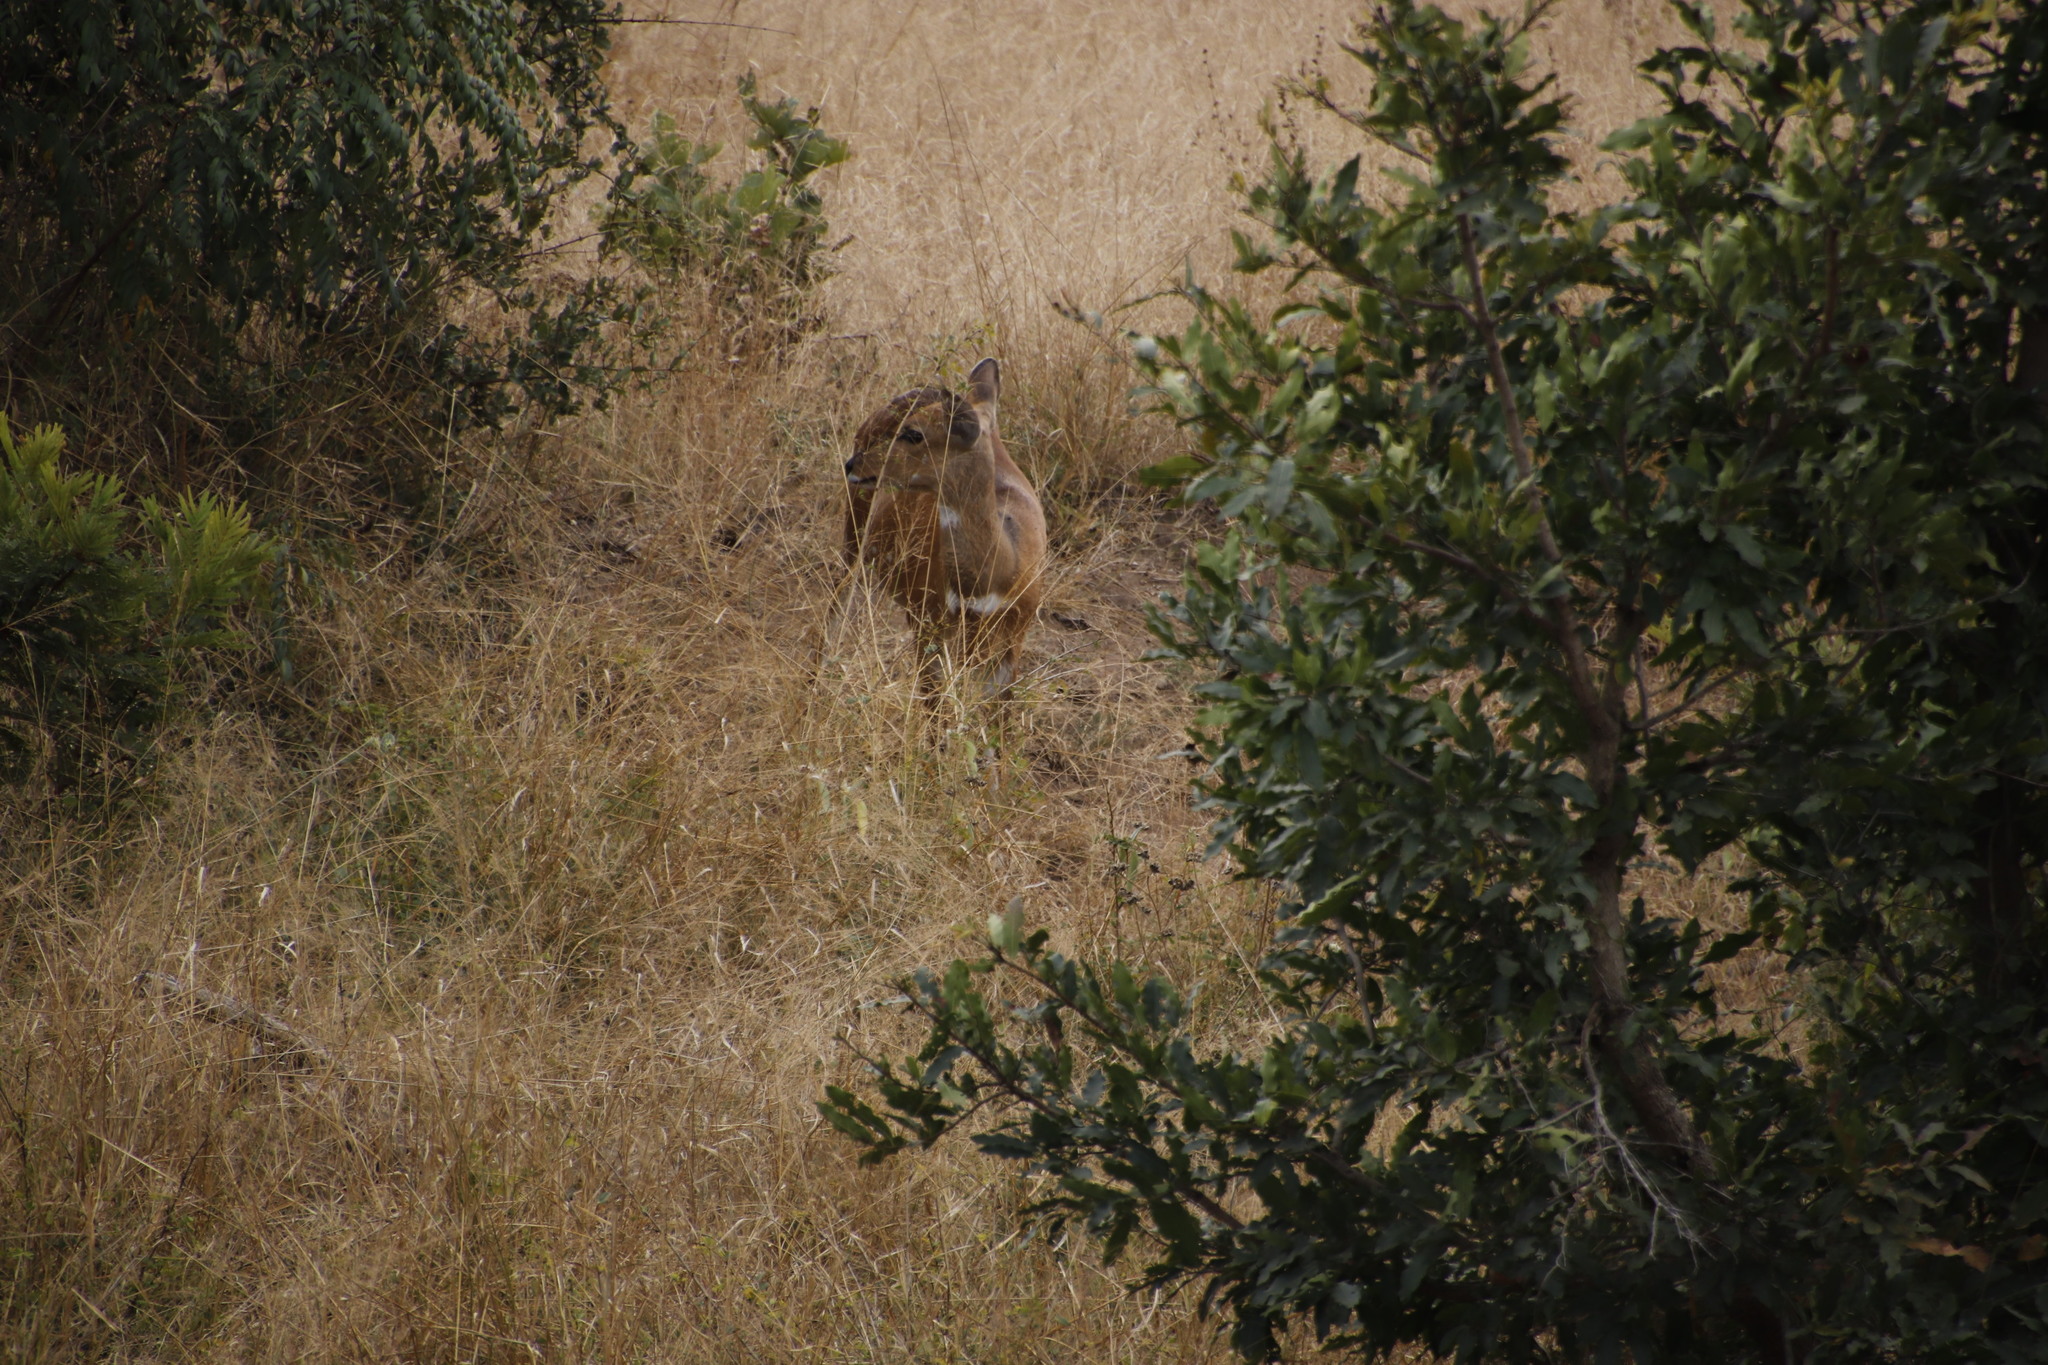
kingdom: Animalia
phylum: Chordata
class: Mammalia
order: Artiodactyla
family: Bovidae
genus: Tragelaphus
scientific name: Tragelaphus scriptus
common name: Bushbuck
